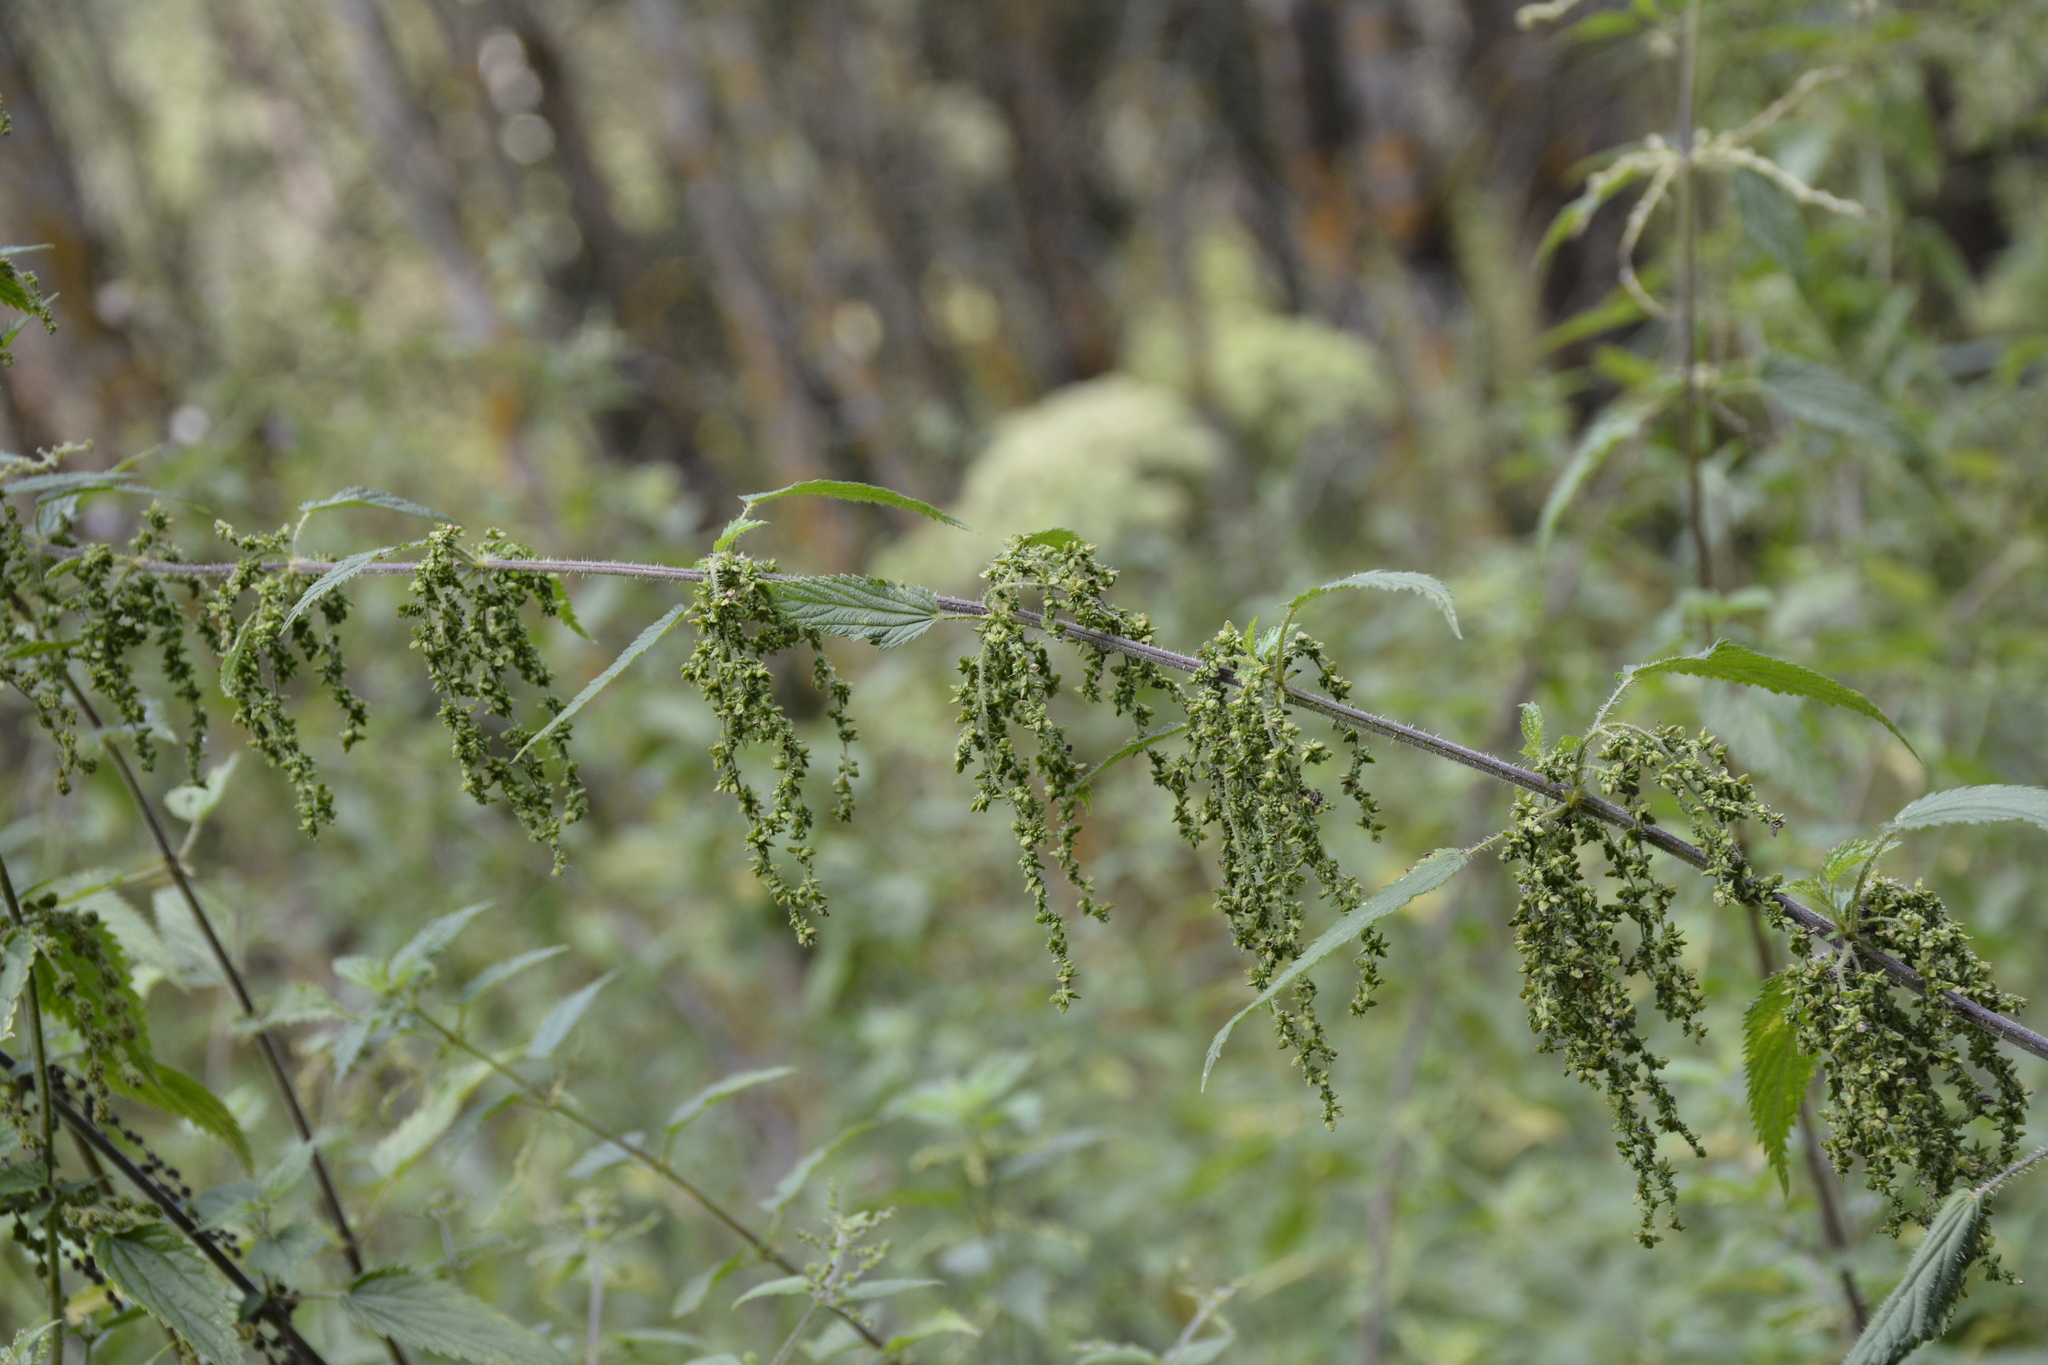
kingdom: Plantae
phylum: Tracheophyta
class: Magnoliopsida
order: Rosales
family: Urticaceae
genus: Urtica
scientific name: Urtica dioica
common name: Common nettle
